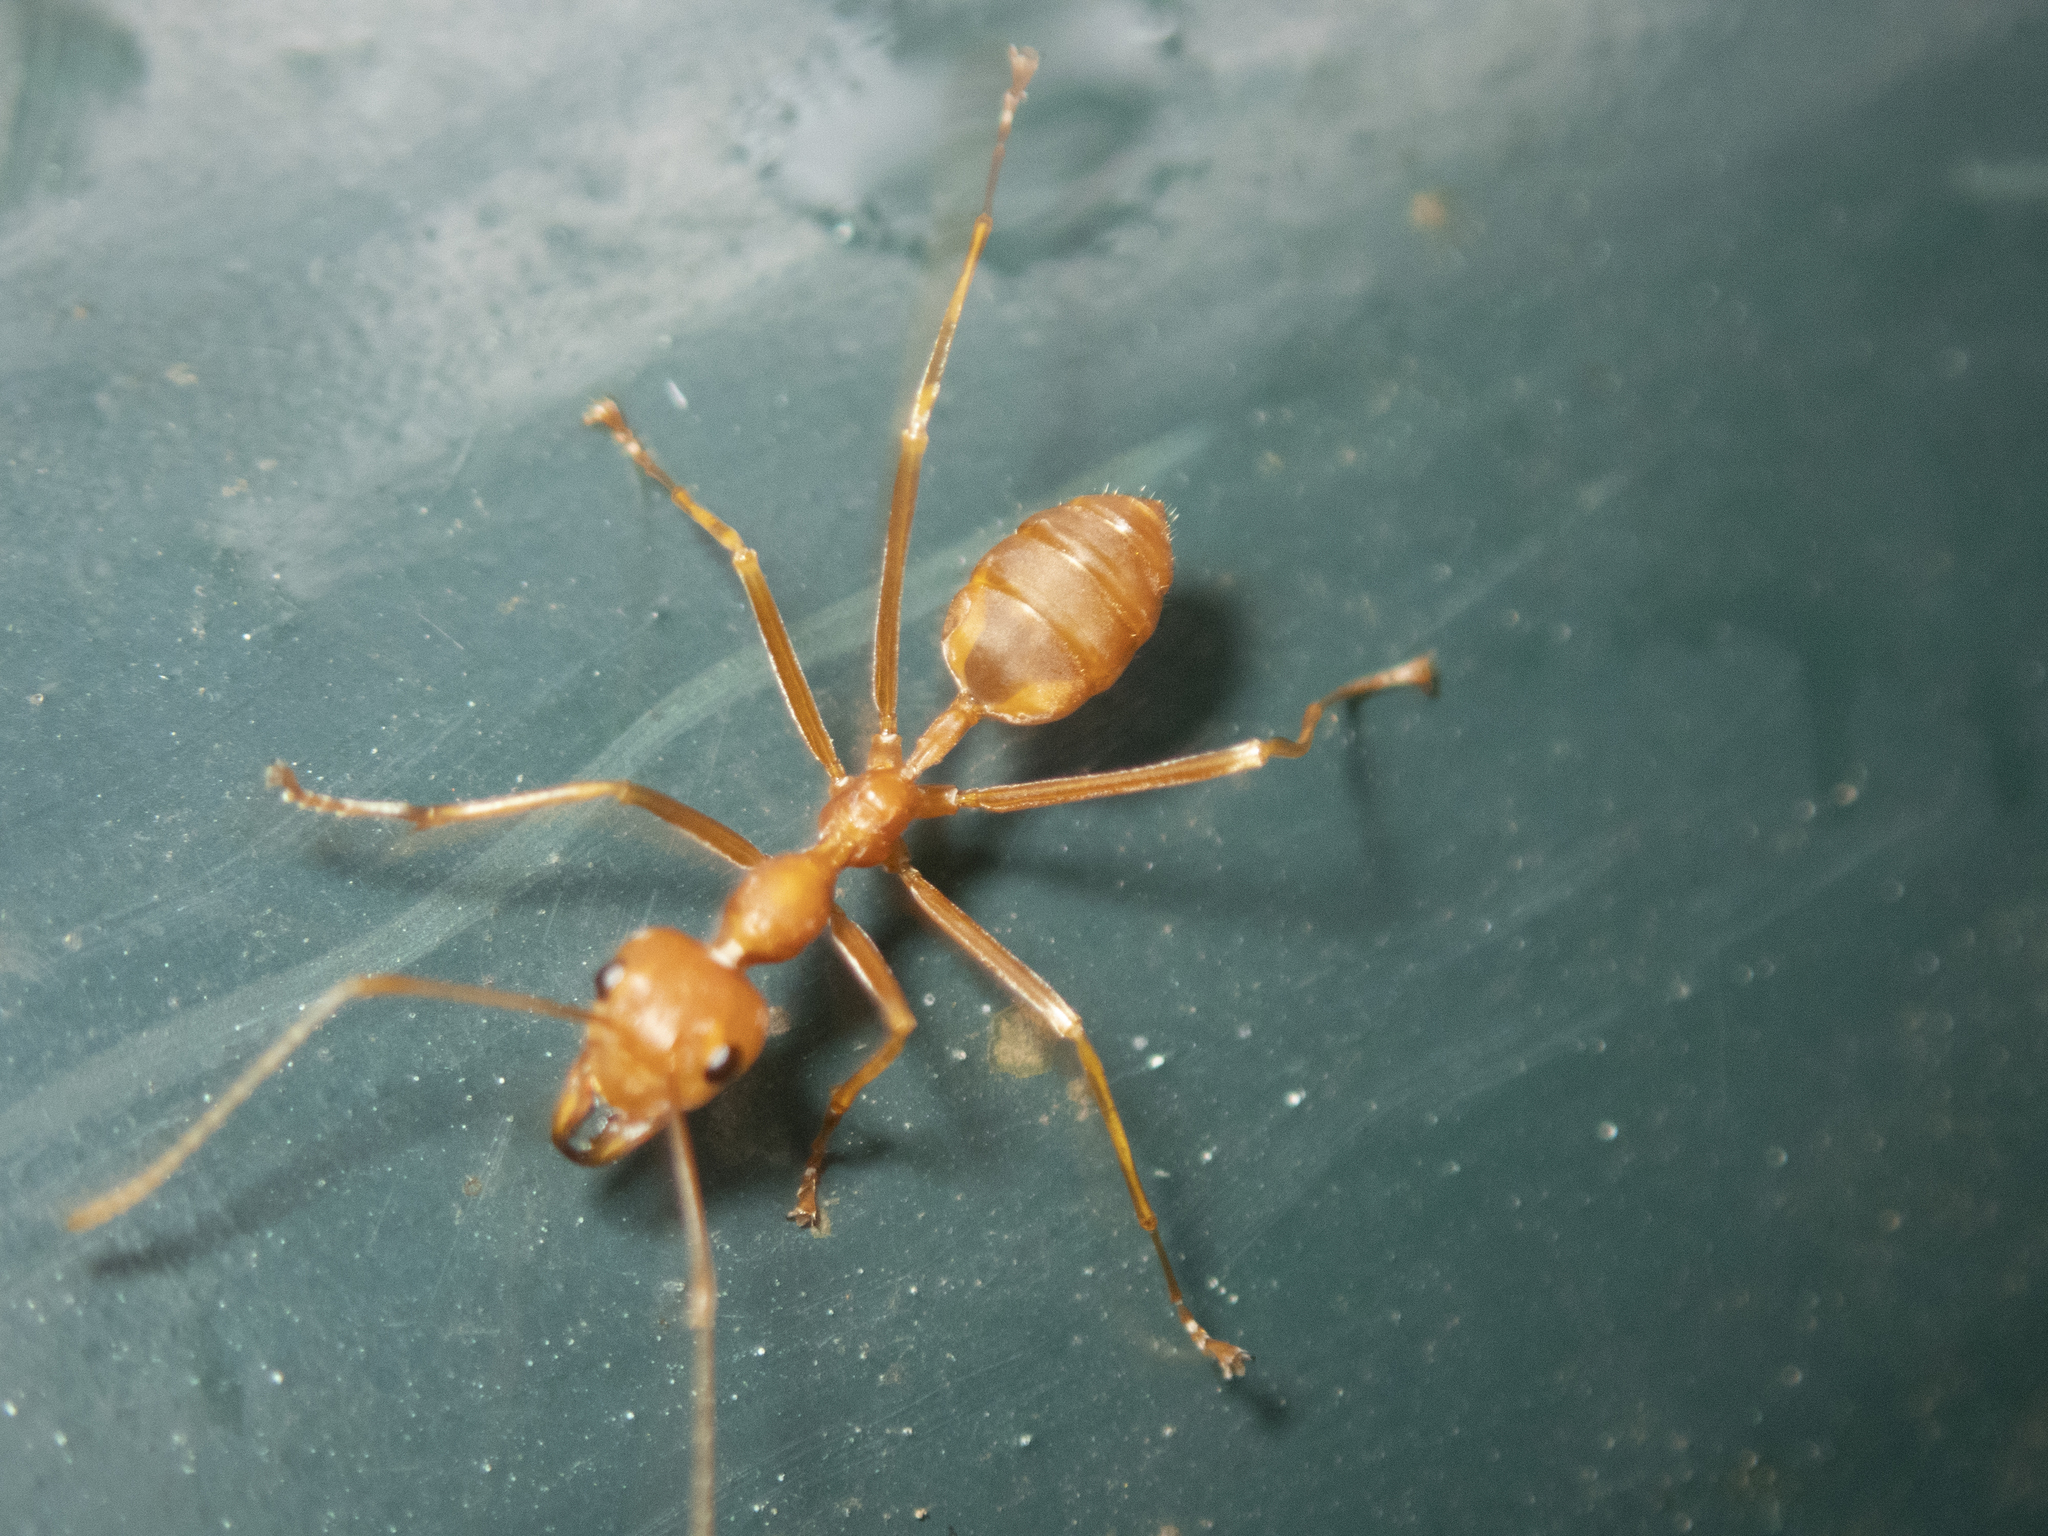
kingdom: Animalia
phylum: Arthropoda
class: Insecta
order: Hymenoptera
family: Formicidae
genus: Oecophylla
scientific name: Oecophylla smaragdina
